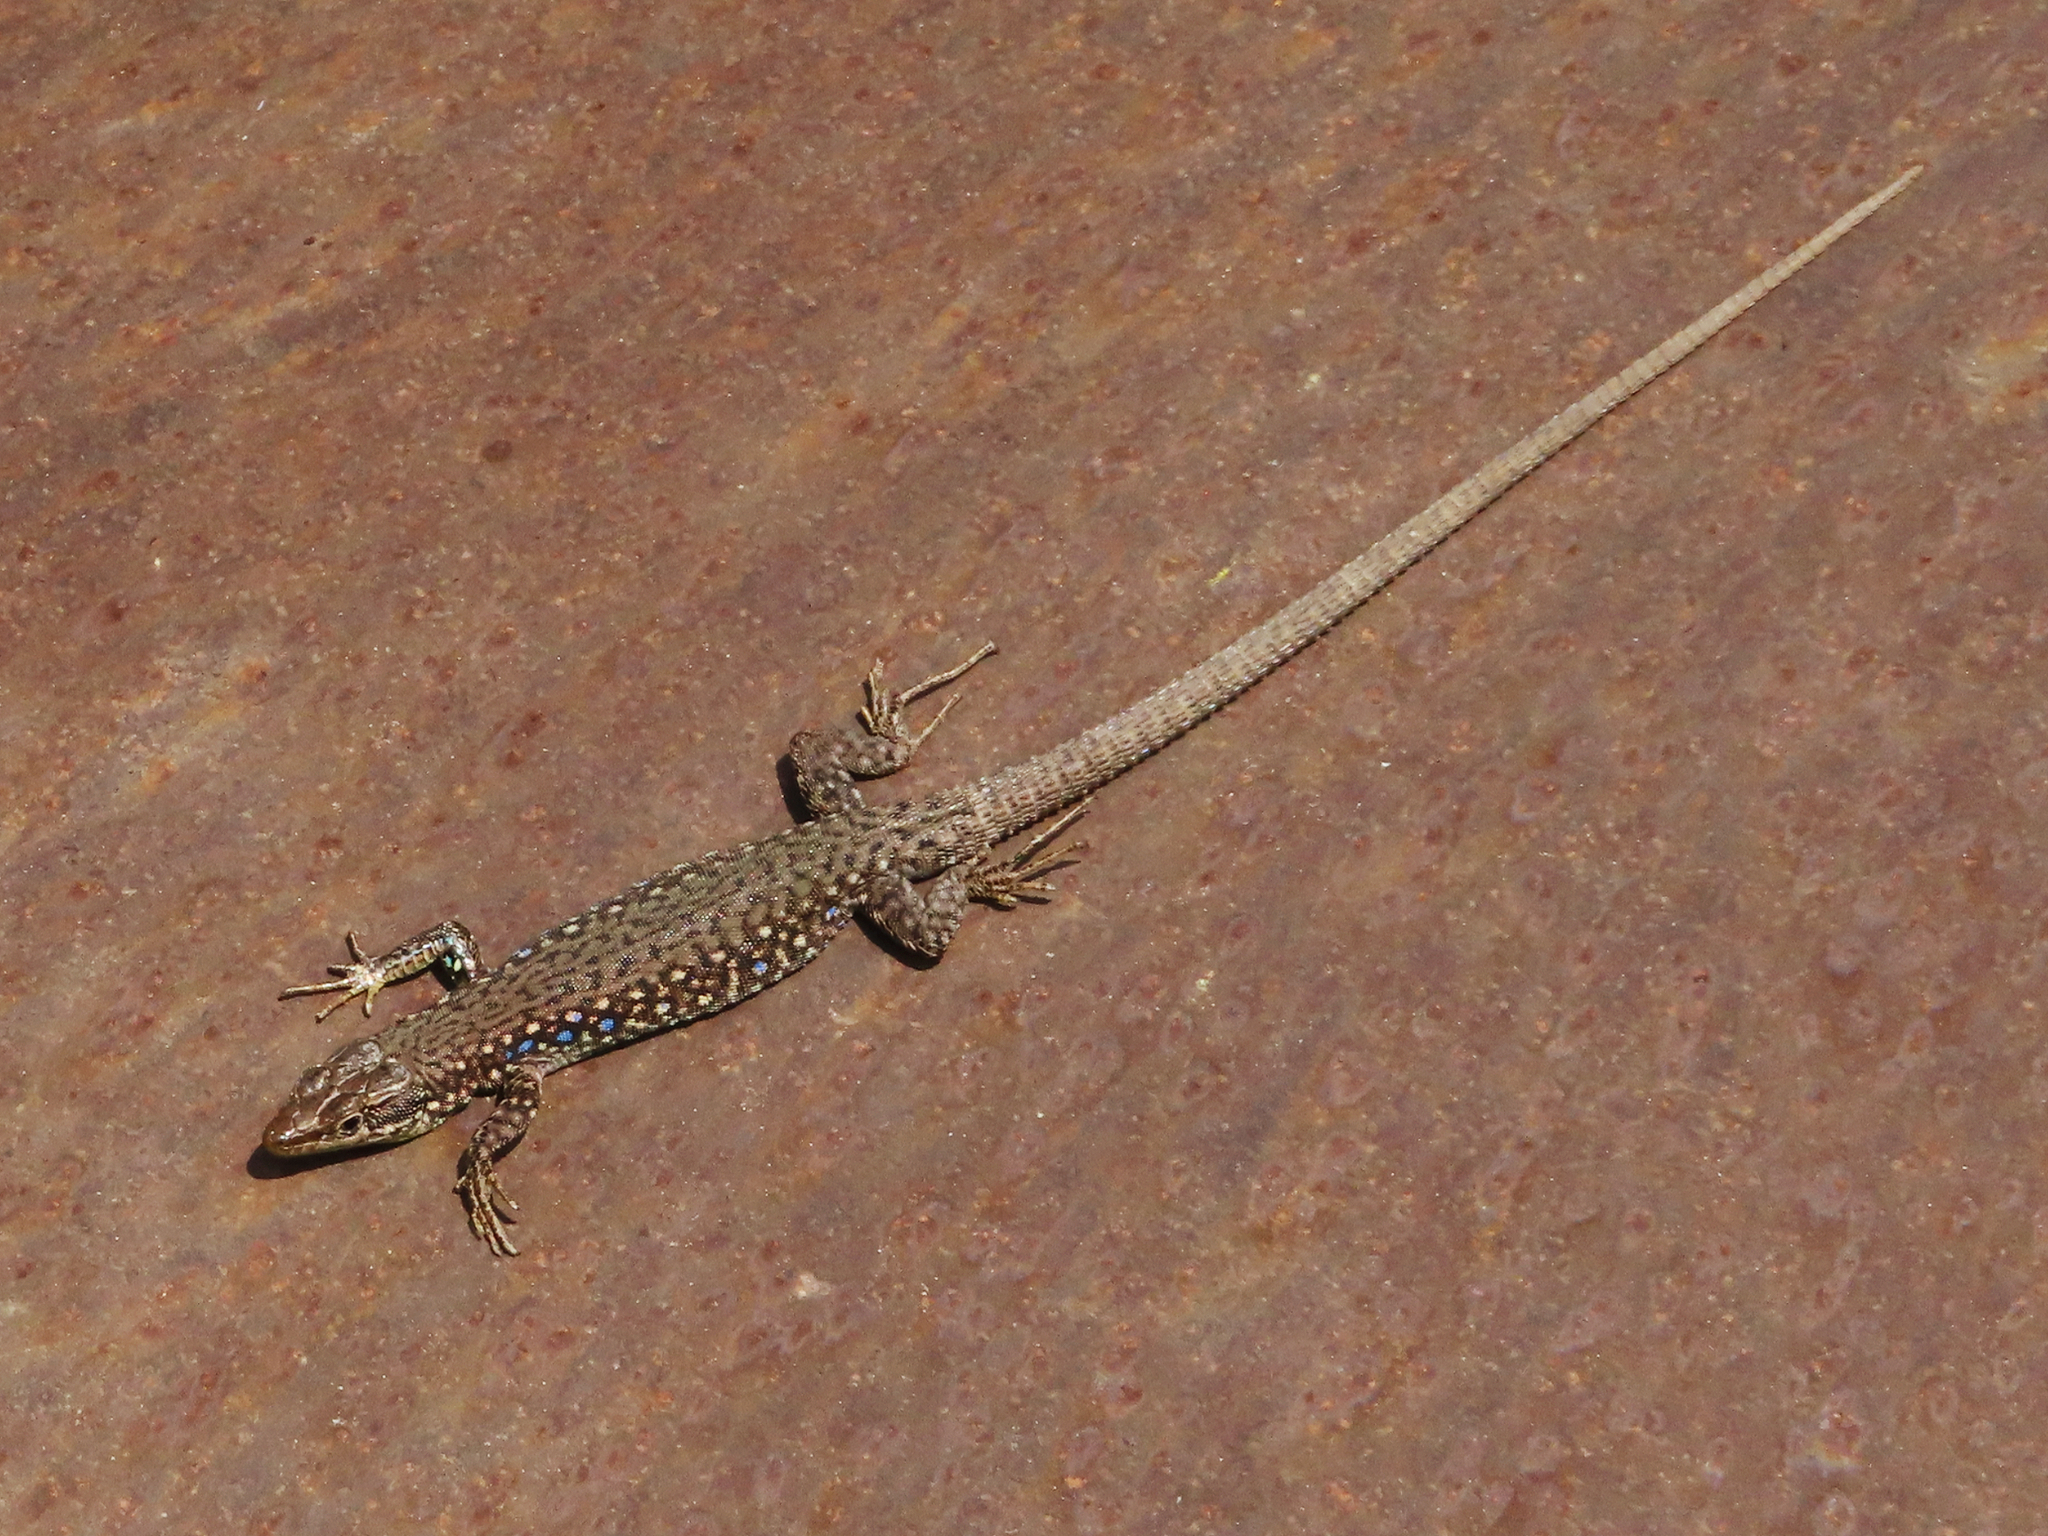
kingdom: Animalia
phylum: Chordata
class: Squamata
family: Lacertidae
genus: Darevskia
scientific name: Darevskia
